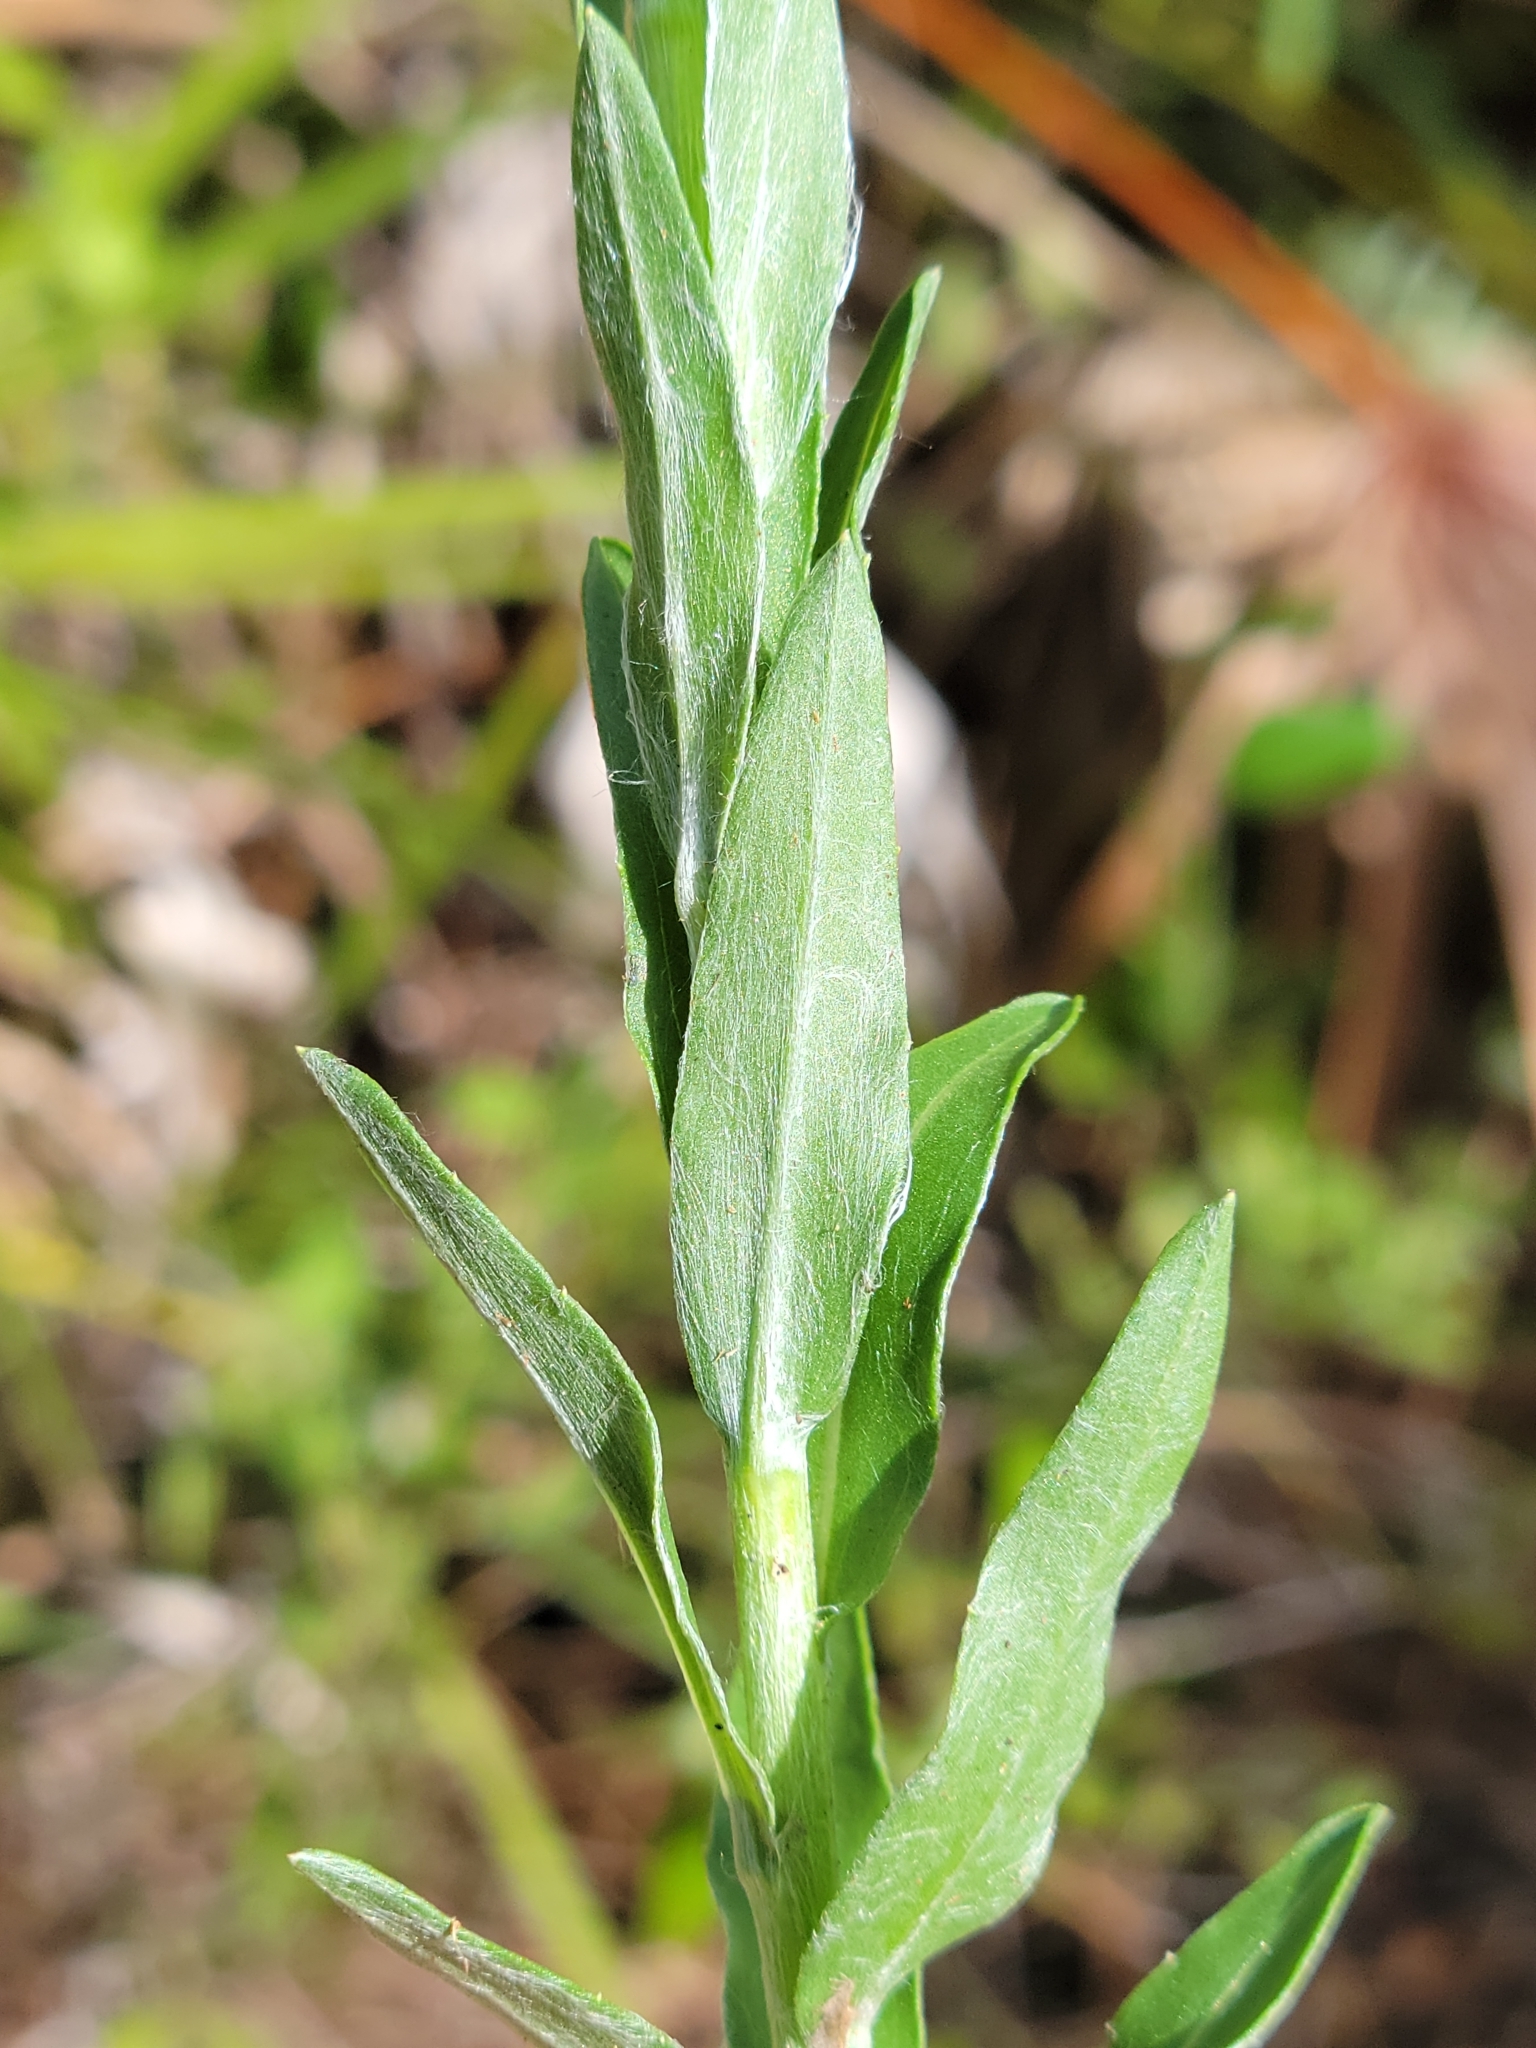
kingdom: Plantae
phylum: Tracheophyta
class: Magnoliopsida
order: Asterales
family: Asteraceae
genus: Chrysopsis
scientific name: Chrysopsis mariana
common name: Maryland golden-aster
